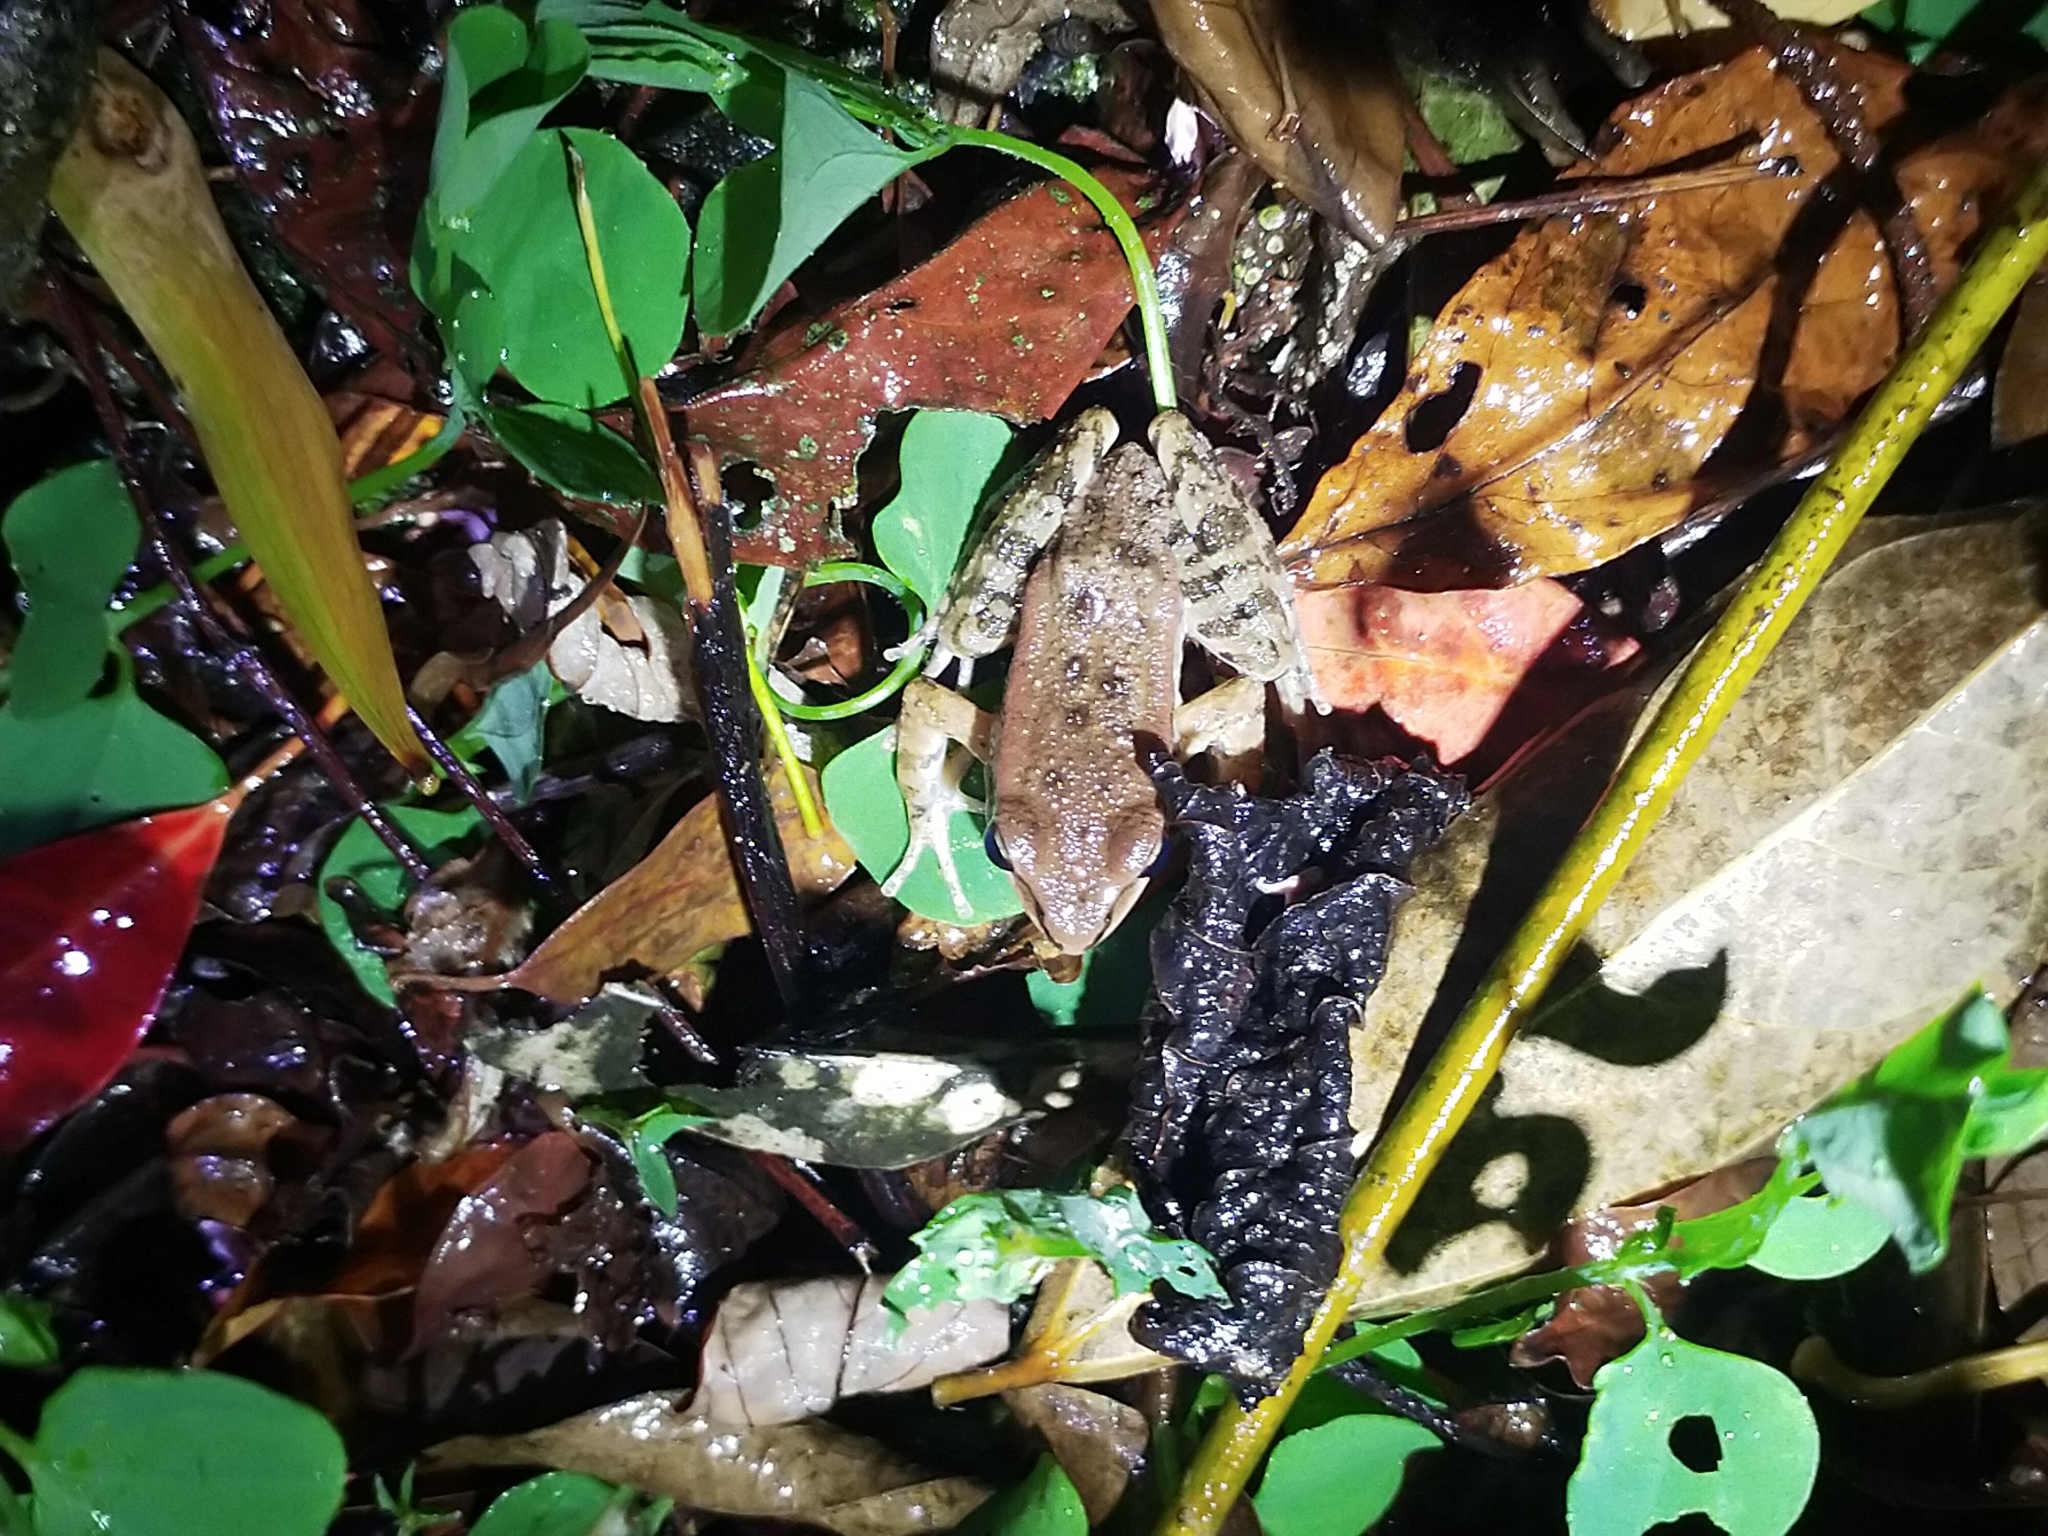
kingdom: Animalia
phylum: Chordata
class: Amphibia
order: Anura
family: Ranidae
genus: Hylarana
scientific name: Hylarana latouchii
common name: Broad-folded frog
